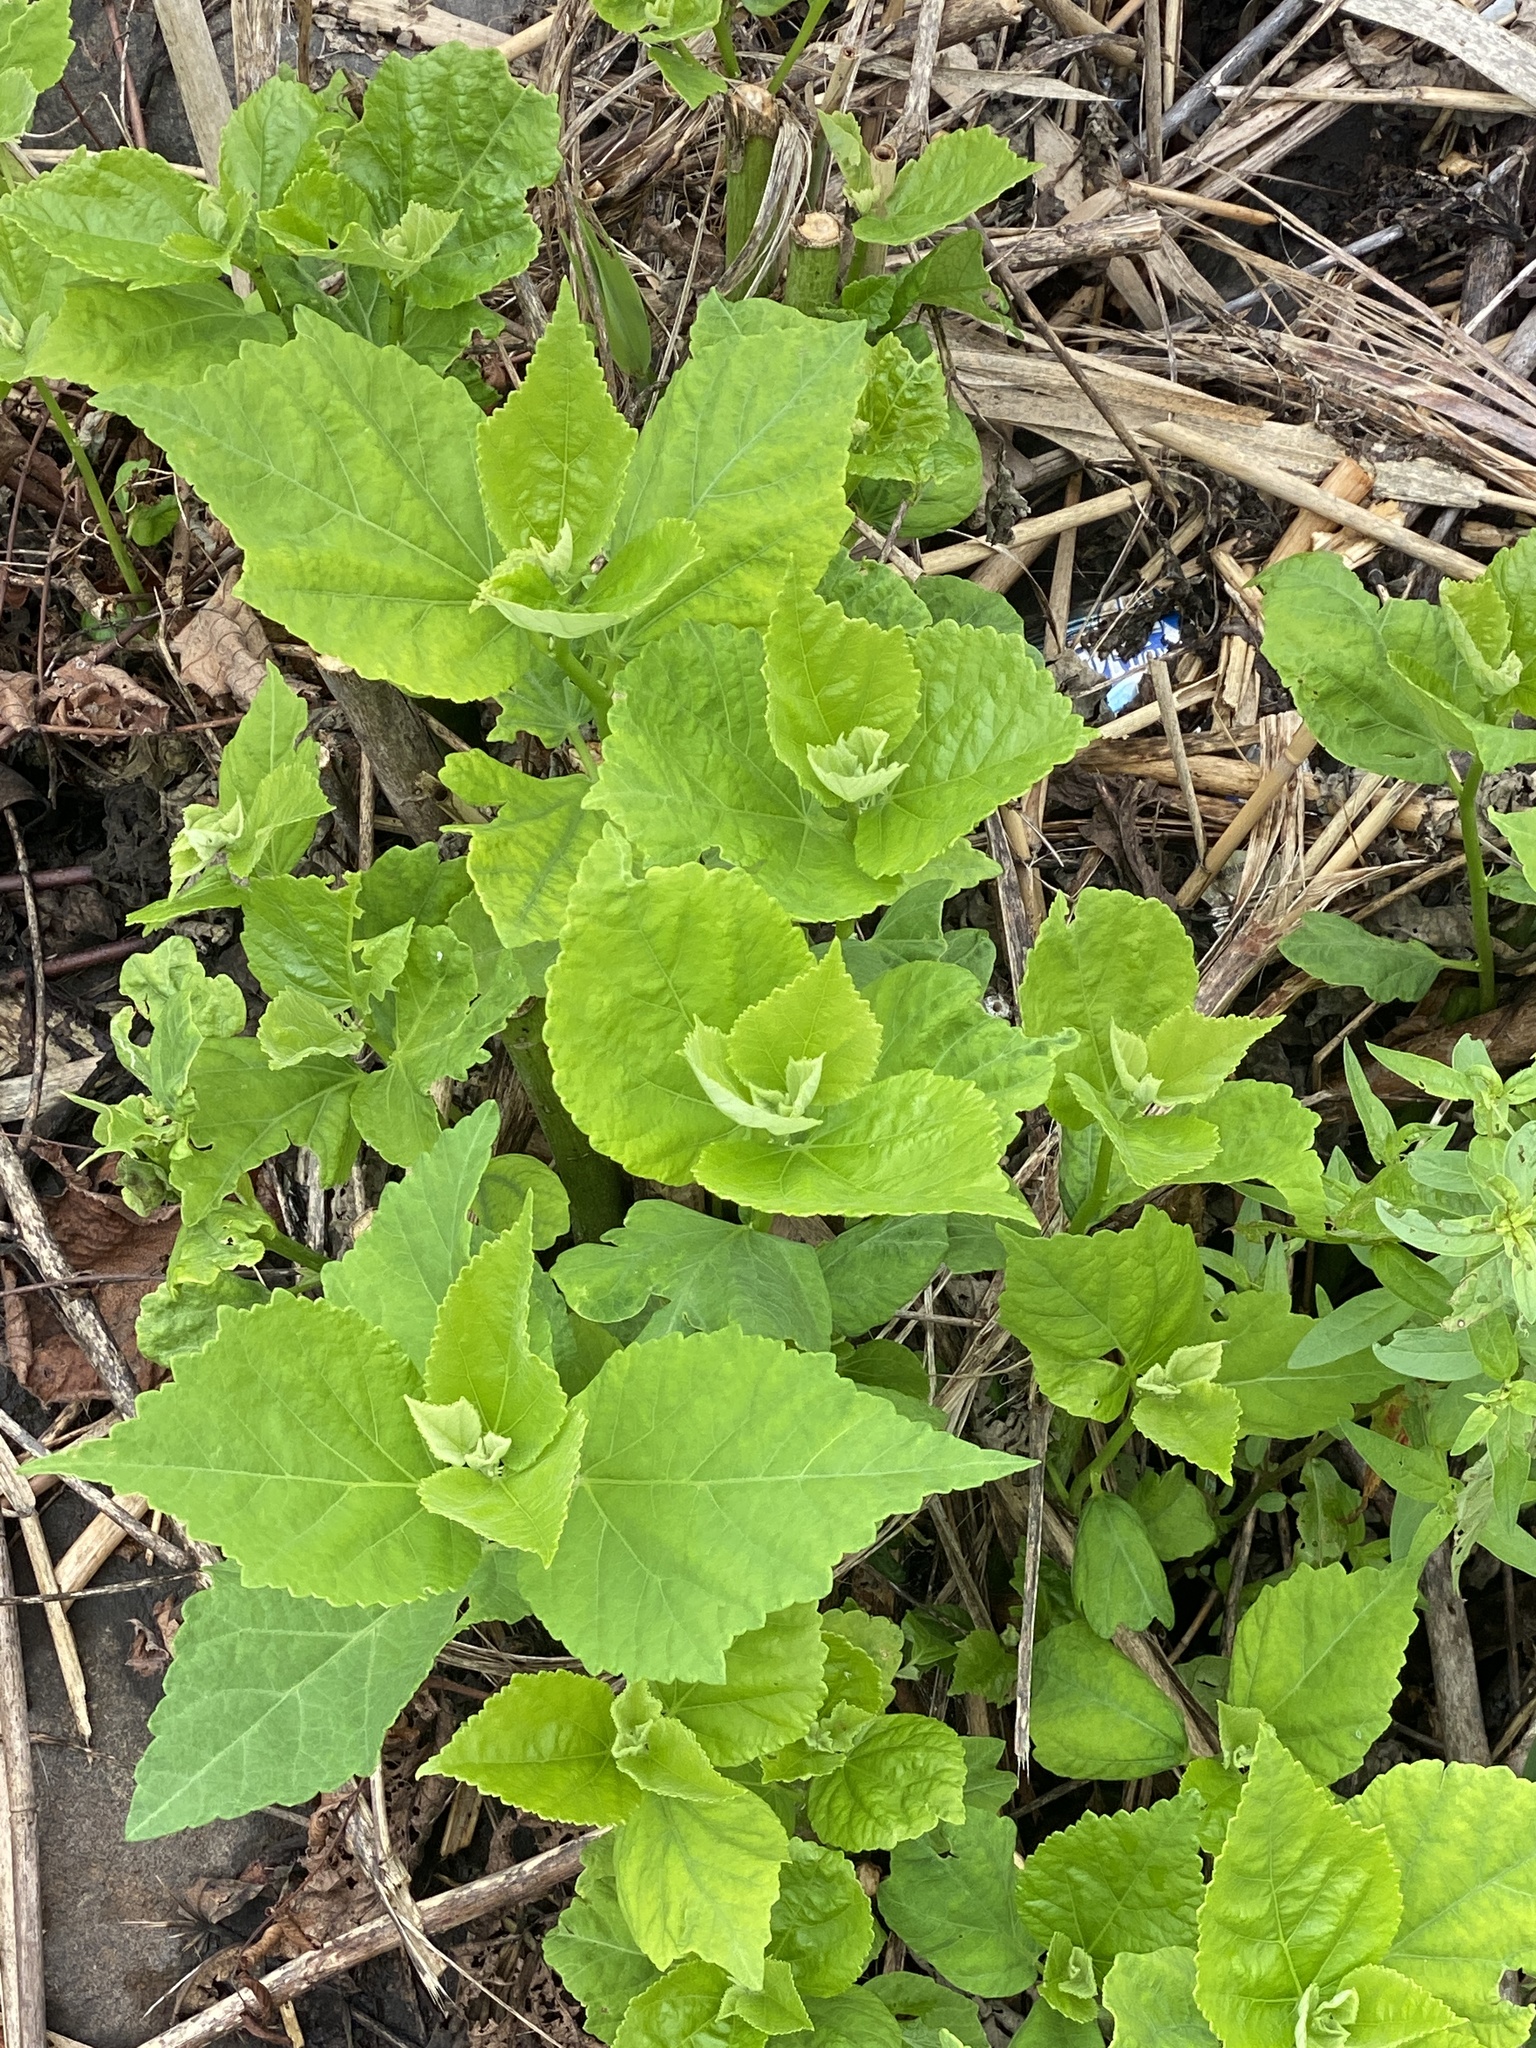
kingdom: Plantae
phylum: Tracheophyta
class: Magnoliopsida
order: Malvales
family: Malvaceae
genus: Hibiscus
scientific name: Hibiscus moscheutos
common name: Common rose-mallow
